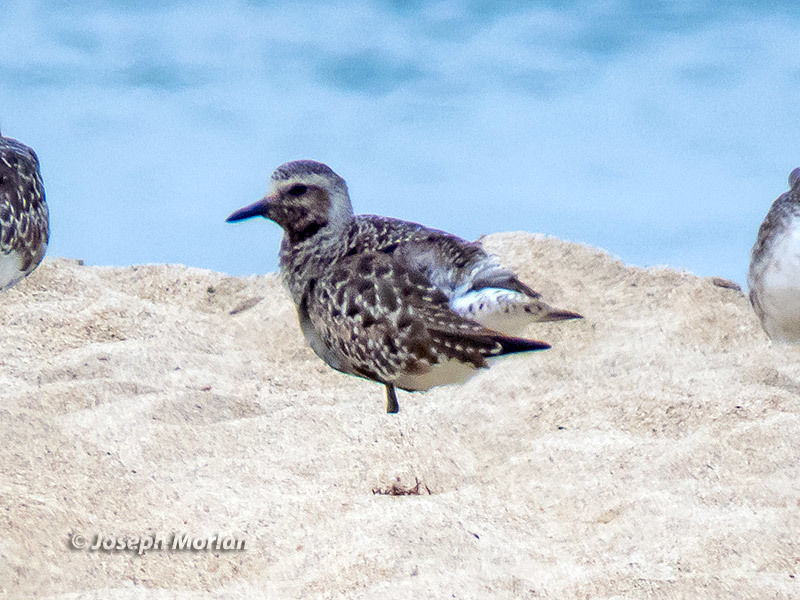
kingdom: Animalia
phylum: Chordata
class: Aves
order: Charadriiformes
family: Charadriidae
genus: Pluvialis
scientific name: Pluvialis squatarola
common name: Grey plover
